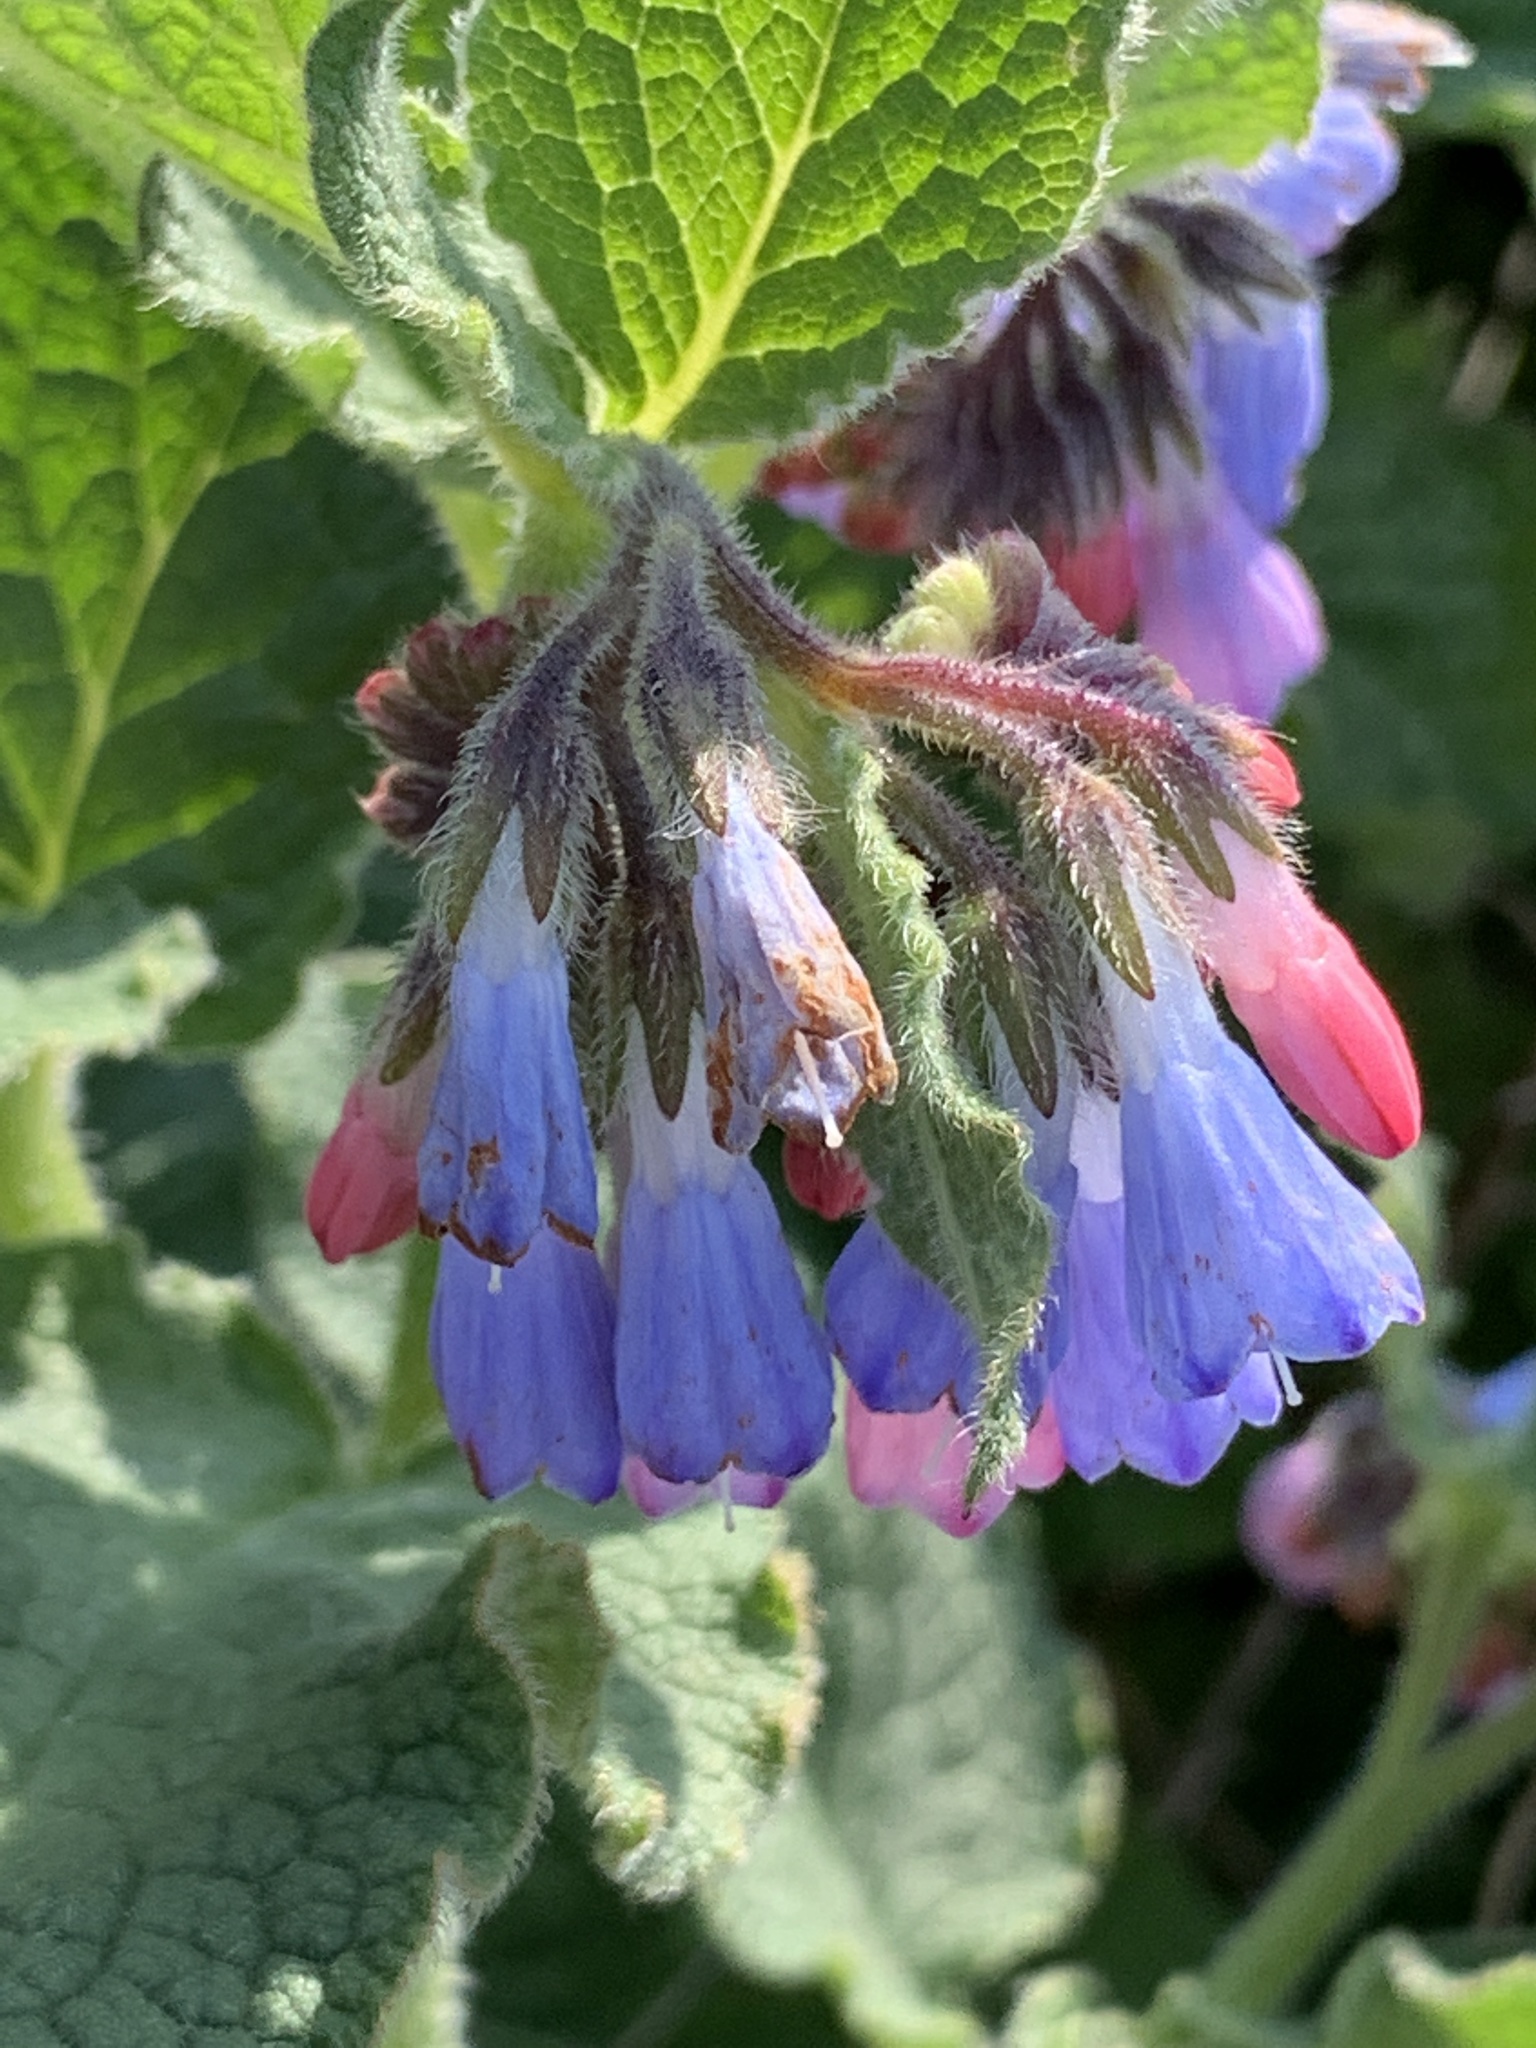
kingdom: Plantae
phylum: Tracheophyta
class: Magnoliopsida
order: Boraginales
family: Boraginaceae
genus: Symphytum
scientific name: Symphytum hidcotense
